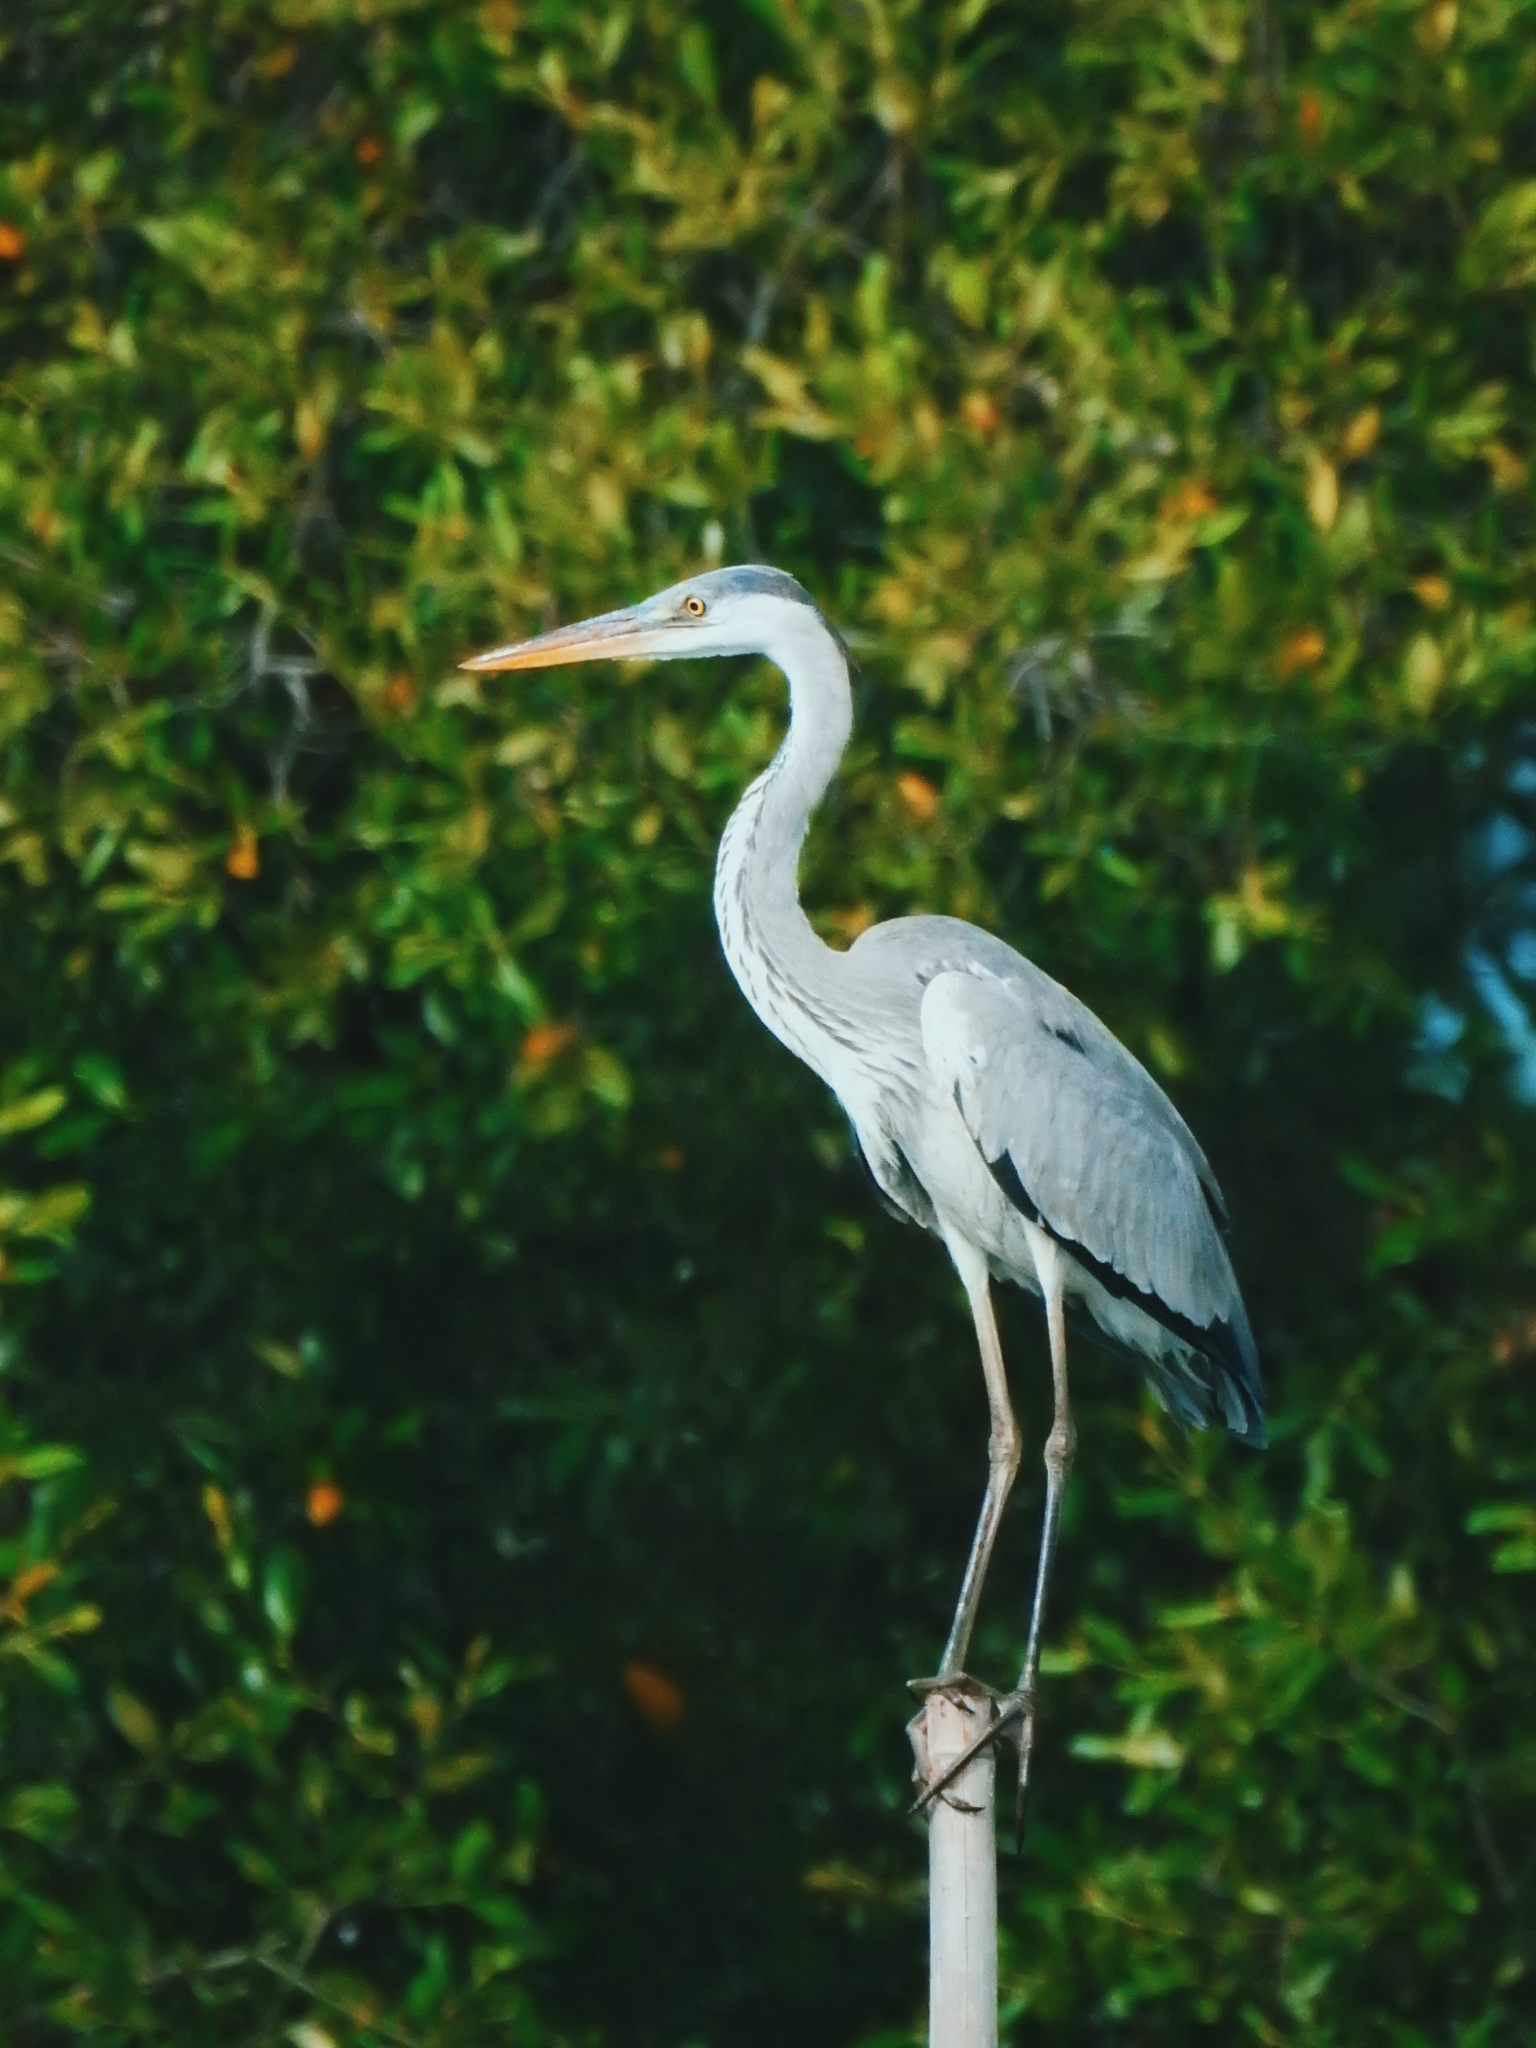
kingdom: Animalia
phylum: Chordata
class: Aves
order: Pelecaniformes
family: Ardeidae
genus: Ardea
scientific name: Ardea cinerea
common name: Grey heron
